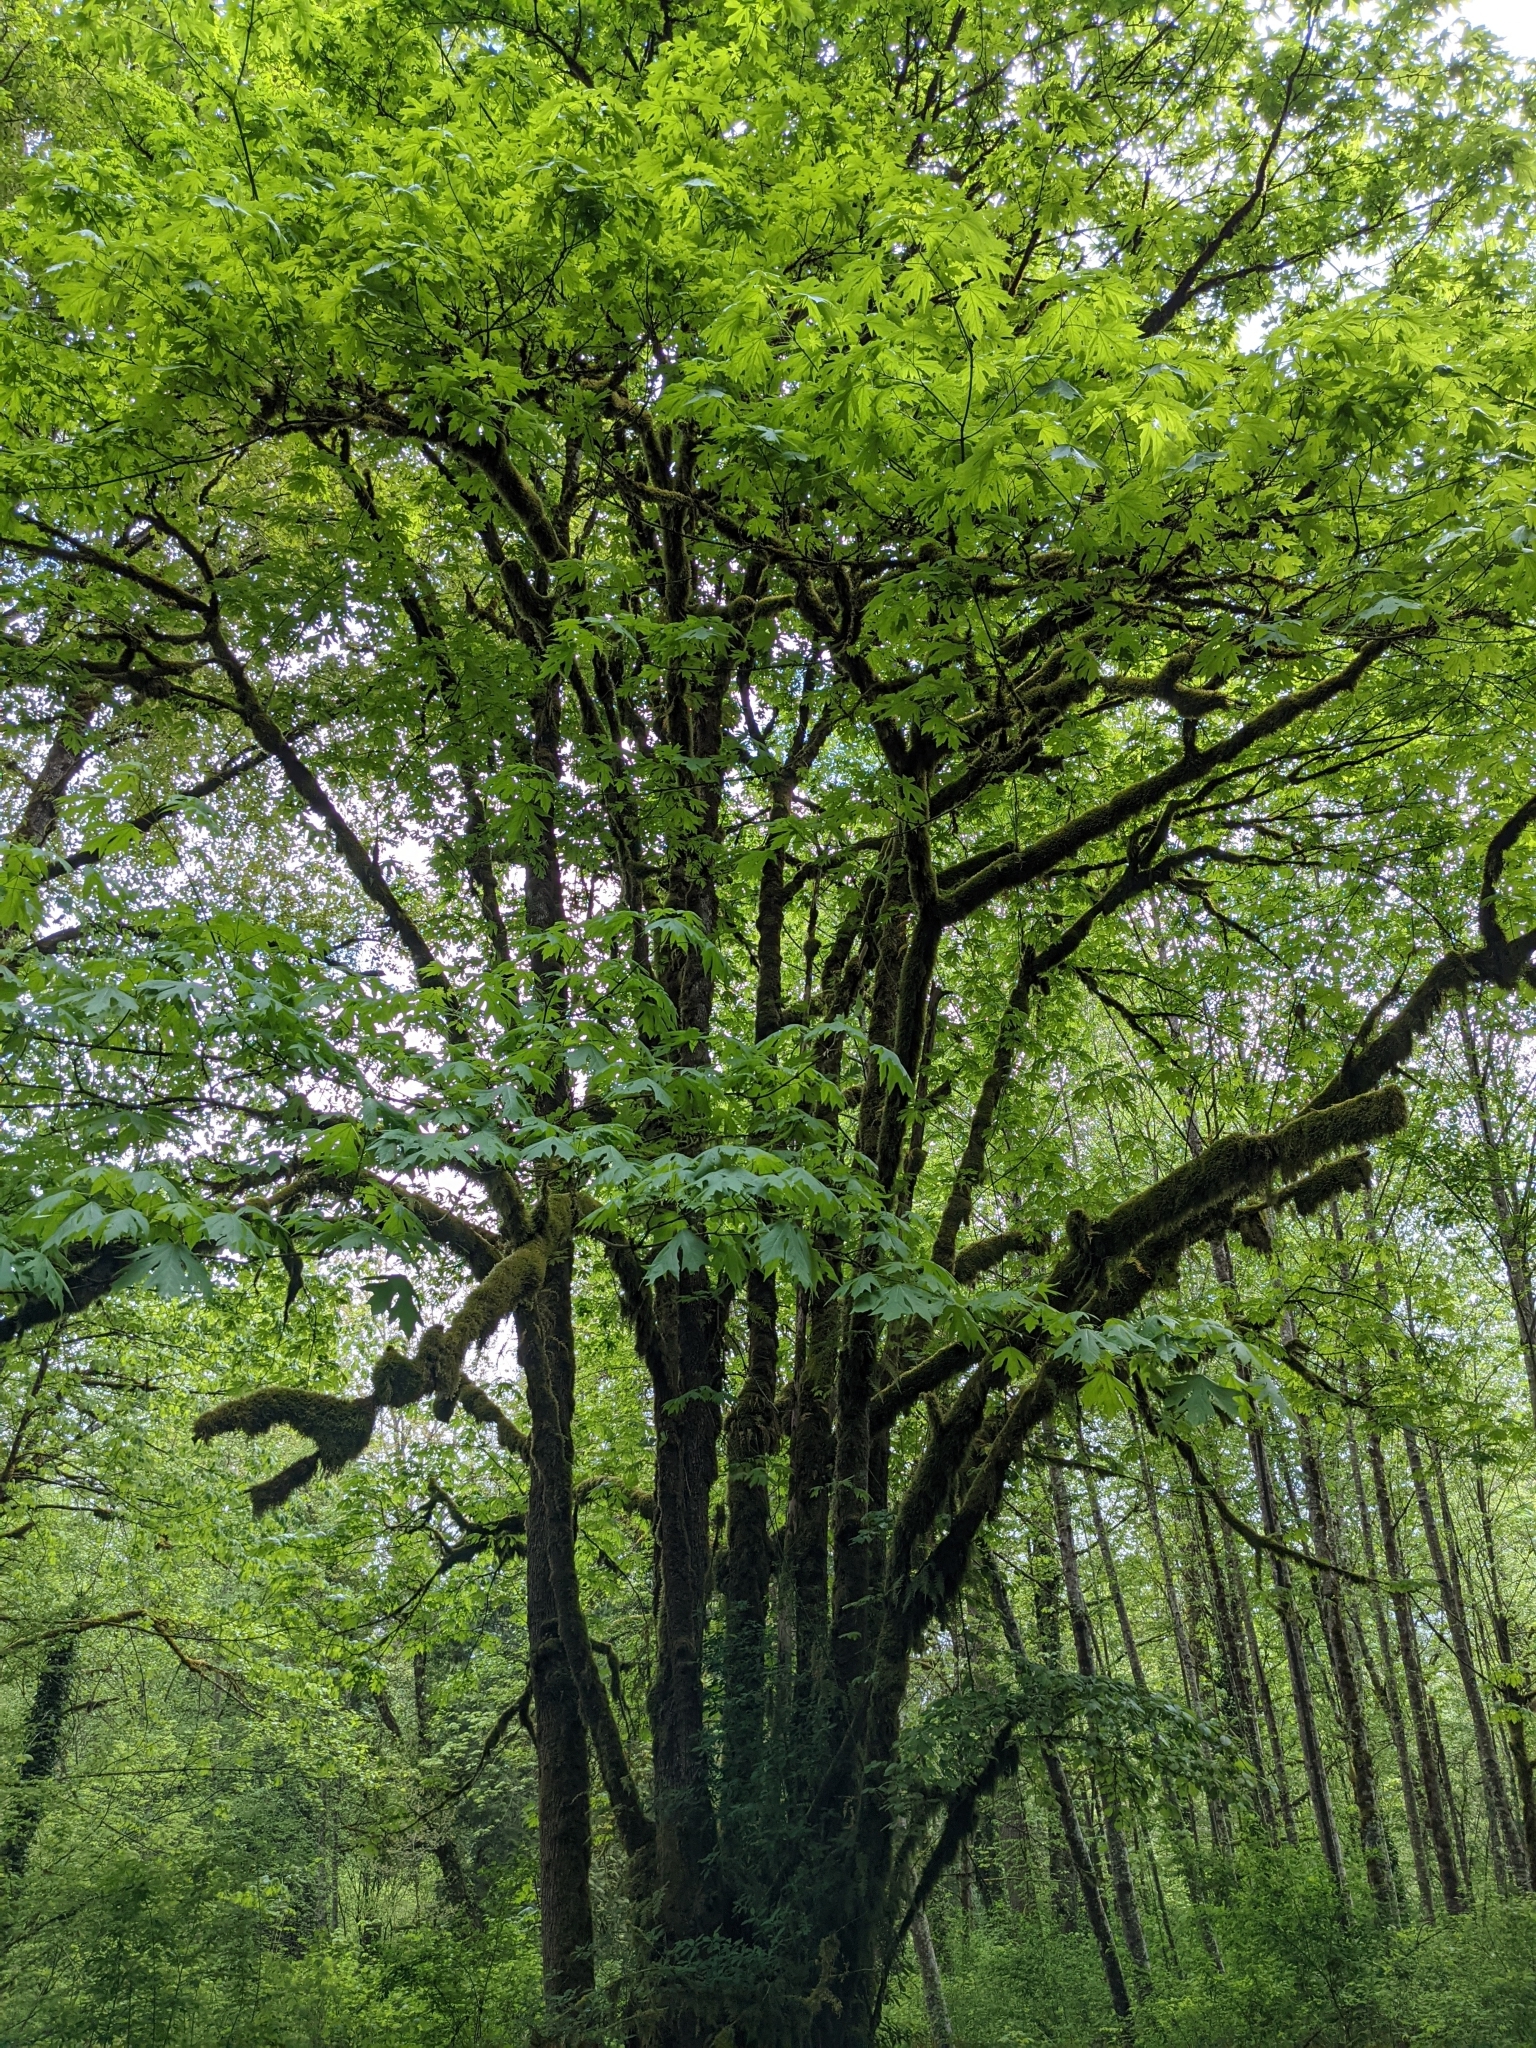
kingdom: Plantae
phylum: Tracheophyta
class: Magnoliopsida
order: Sapindales
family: Sapindaceae
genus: Acer
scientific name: Acer macrophyllum
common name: Oregon maple
